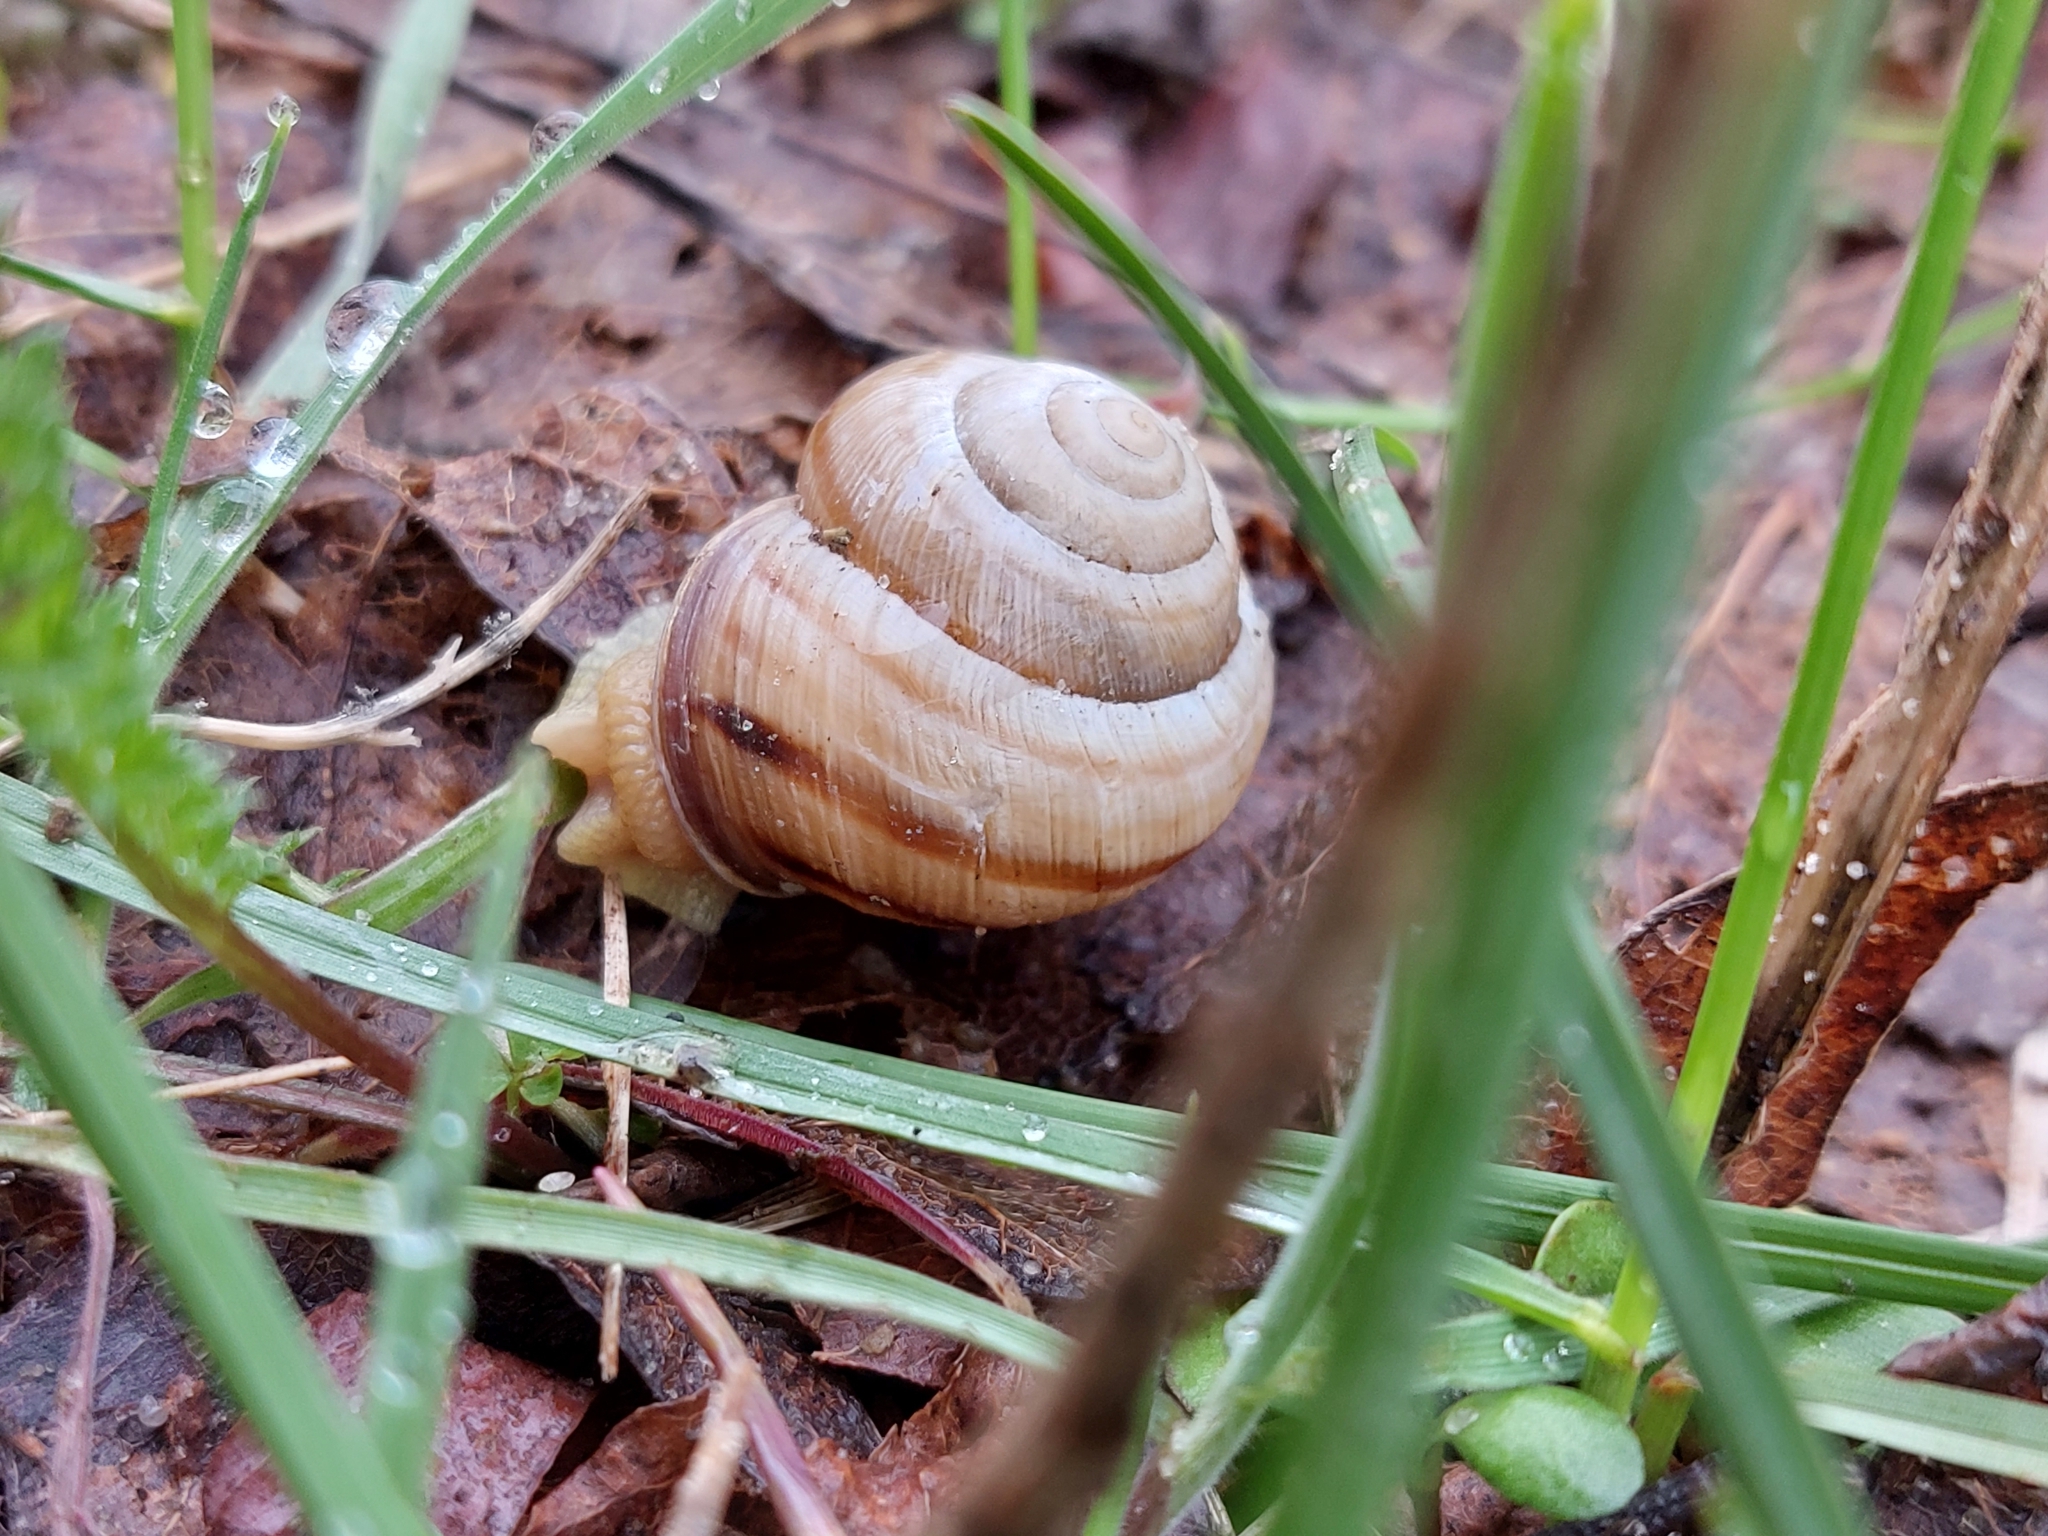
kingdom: Animalia
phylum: Mollusca
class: Gastropoda
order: Stylommatophora
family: Helicidae
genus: Caucasotachea
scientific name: Caucasotachea vindobonensis
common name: European helicid land snail
